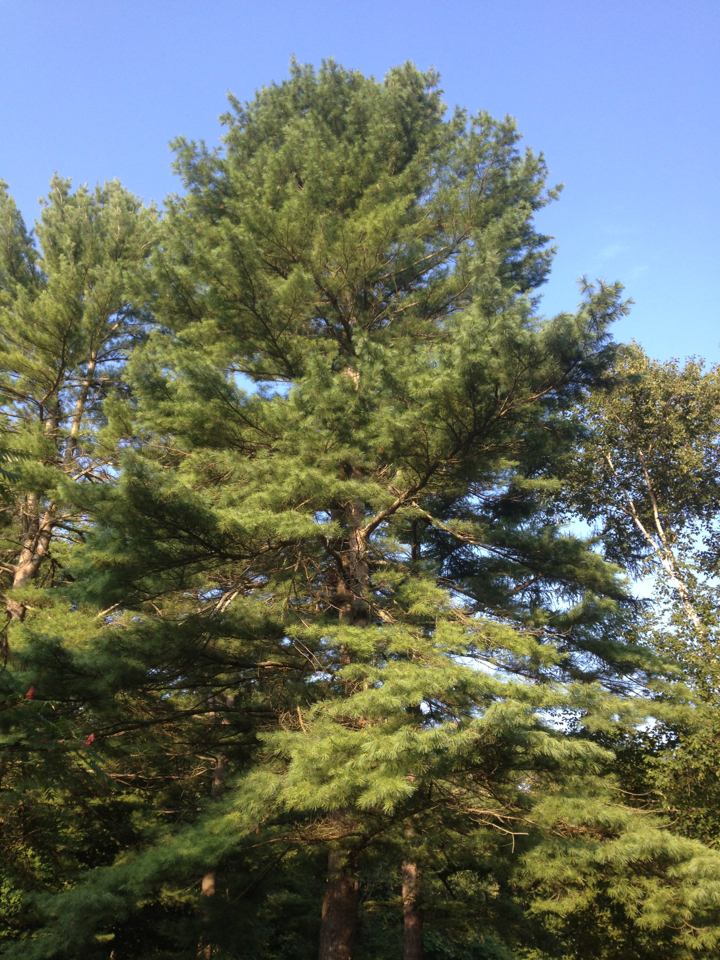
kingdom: Plantae
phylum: Tracheophyta
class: Pinopsida
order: Pinales
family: Pinaceae
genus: Pinus
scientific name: Pinus strobus
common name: Weymouth pine
